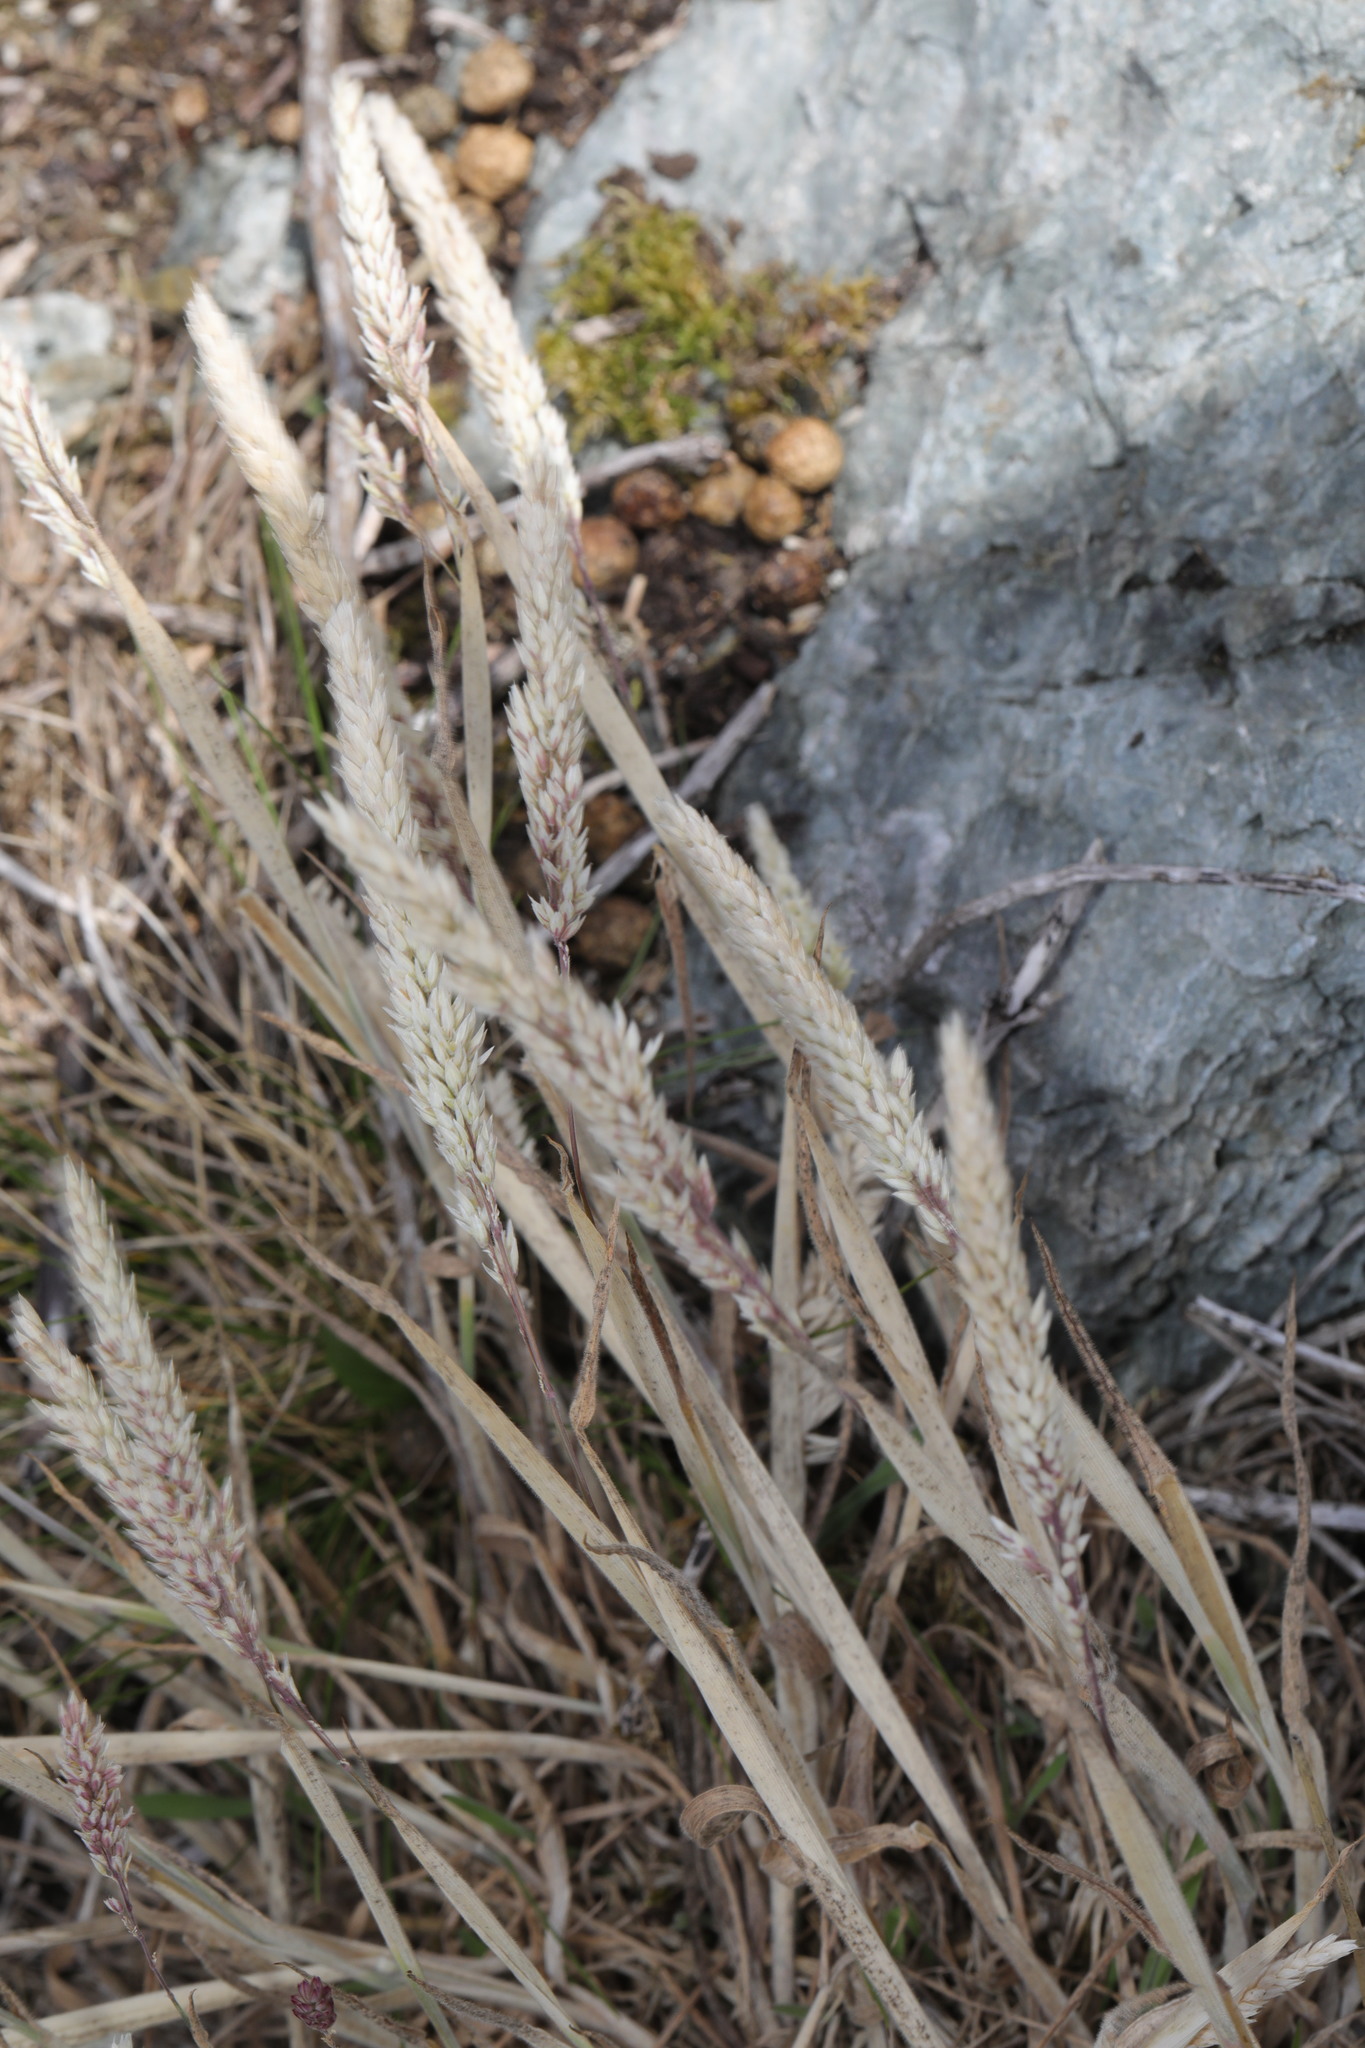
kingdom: Plantae
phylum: Tracheophyta
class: Liliopsida
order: Poales
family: Poaceae
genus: Holcus
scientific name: Holcus lanatus
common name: Yorkshire-fog
